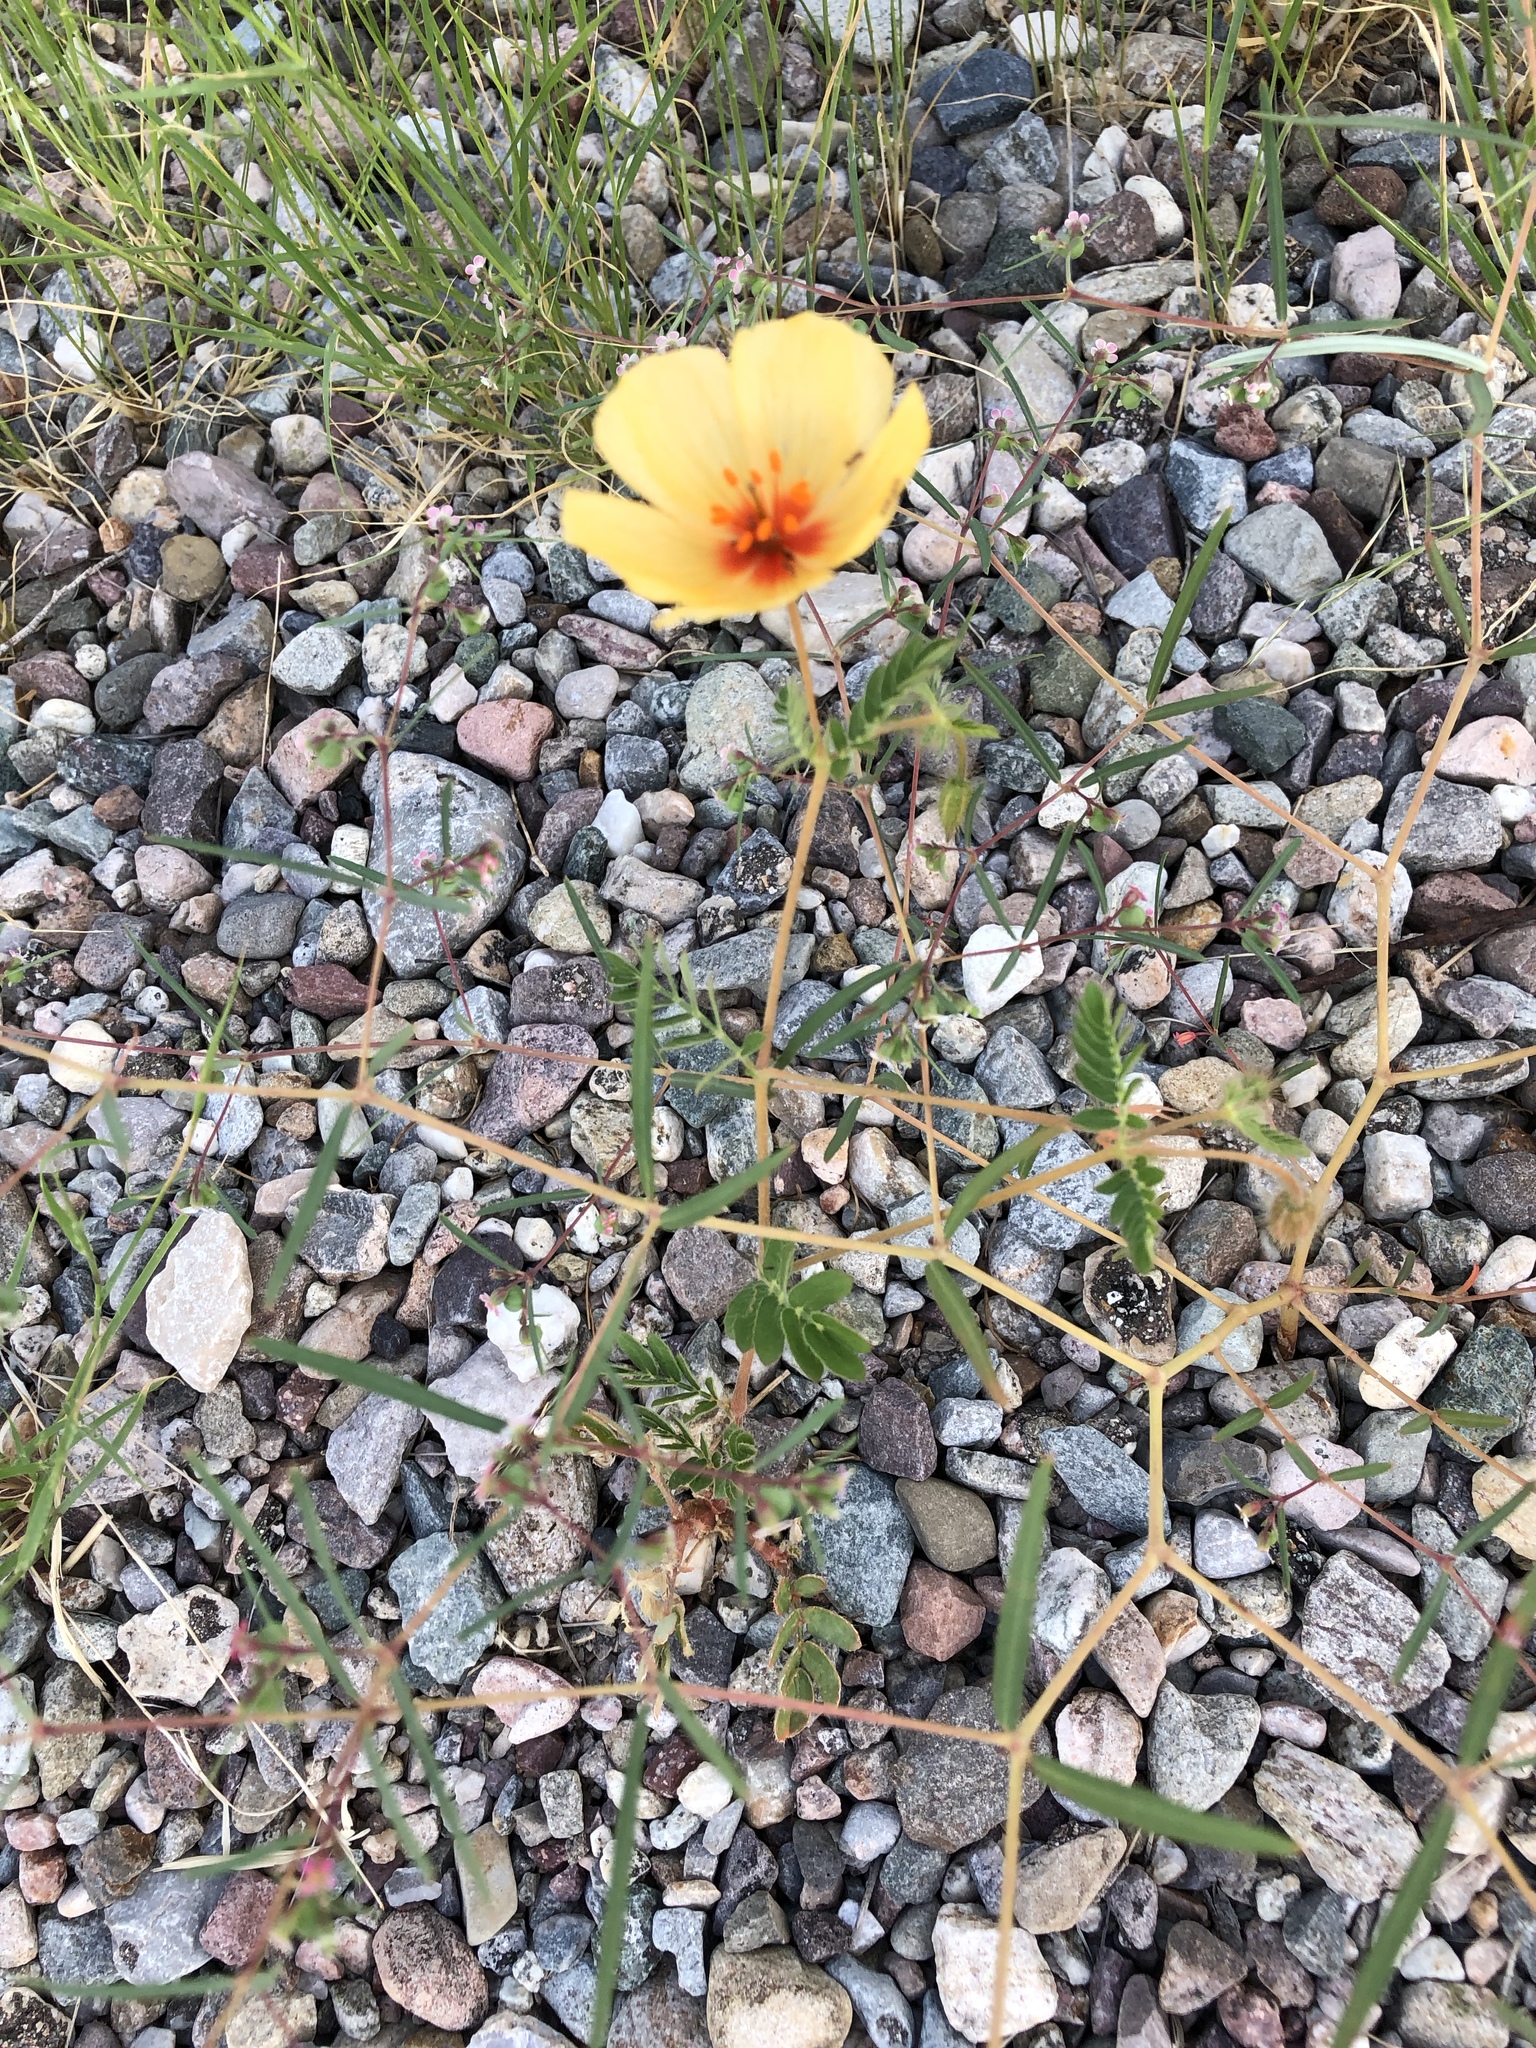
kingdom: Plantae
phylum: Tracheophyta
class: Magnoliopsida
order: Zygophyllales
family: Zygophyllaceae
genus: Kallstroemia
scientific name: Kallstroemia grandiflora
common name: Arizona-poppy
